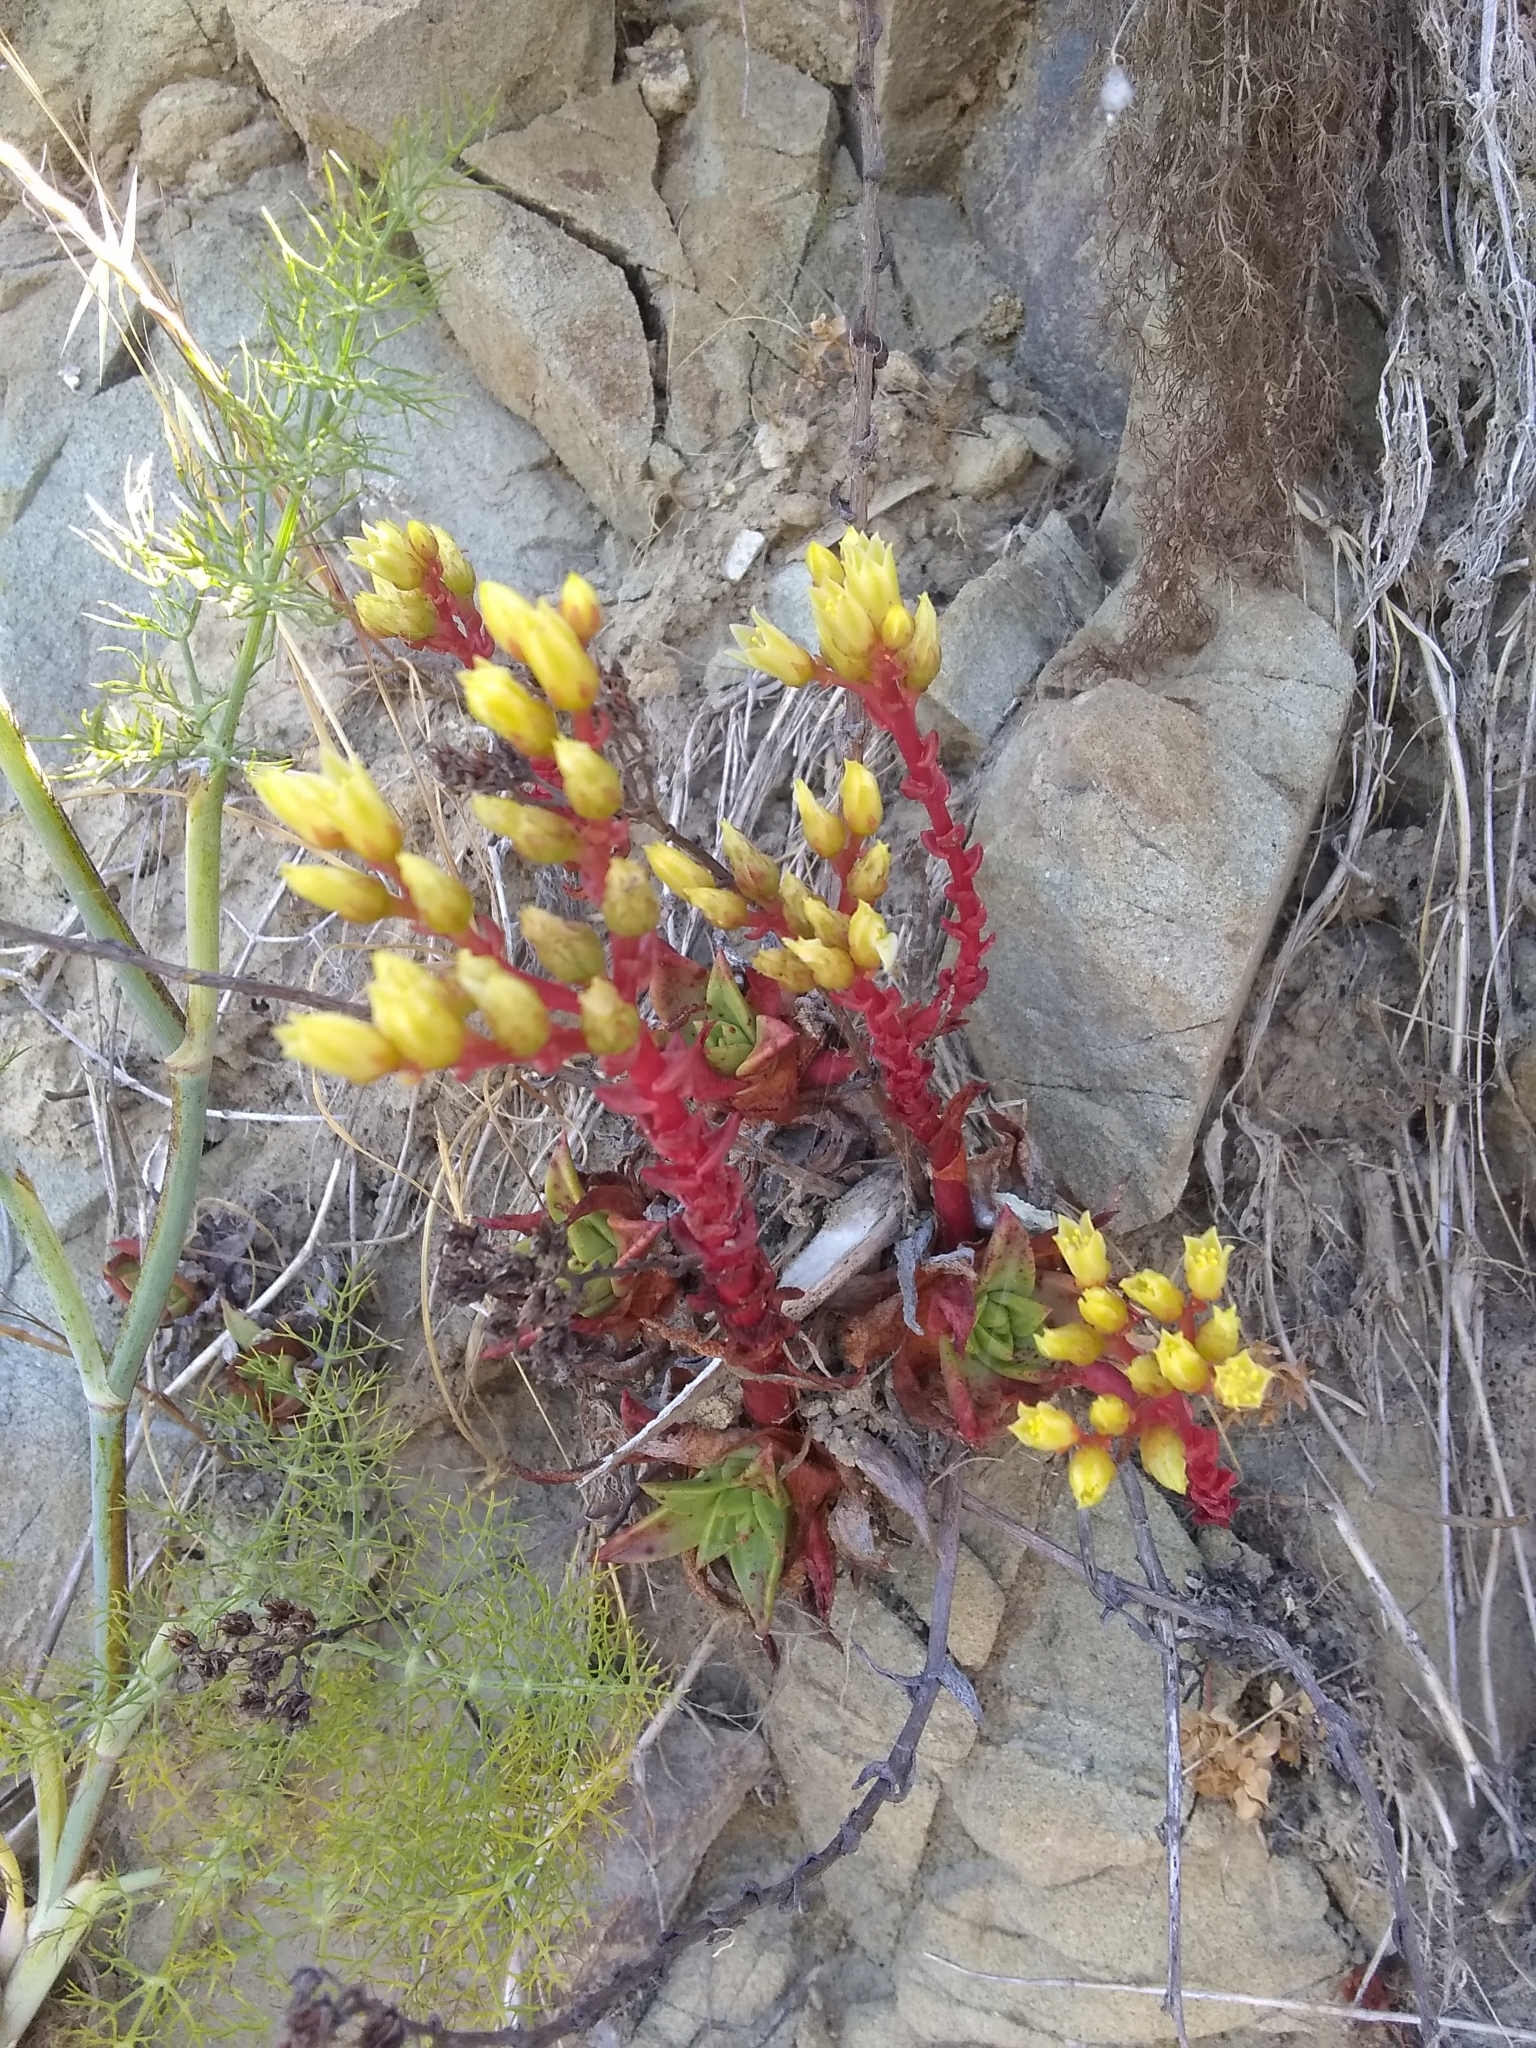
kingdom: Plantae
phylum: Tracheophyta
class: Magnoliopsida
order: Saxifragales
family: Crassulaceae
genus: Dudleya
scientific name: Dudleya farinosa
